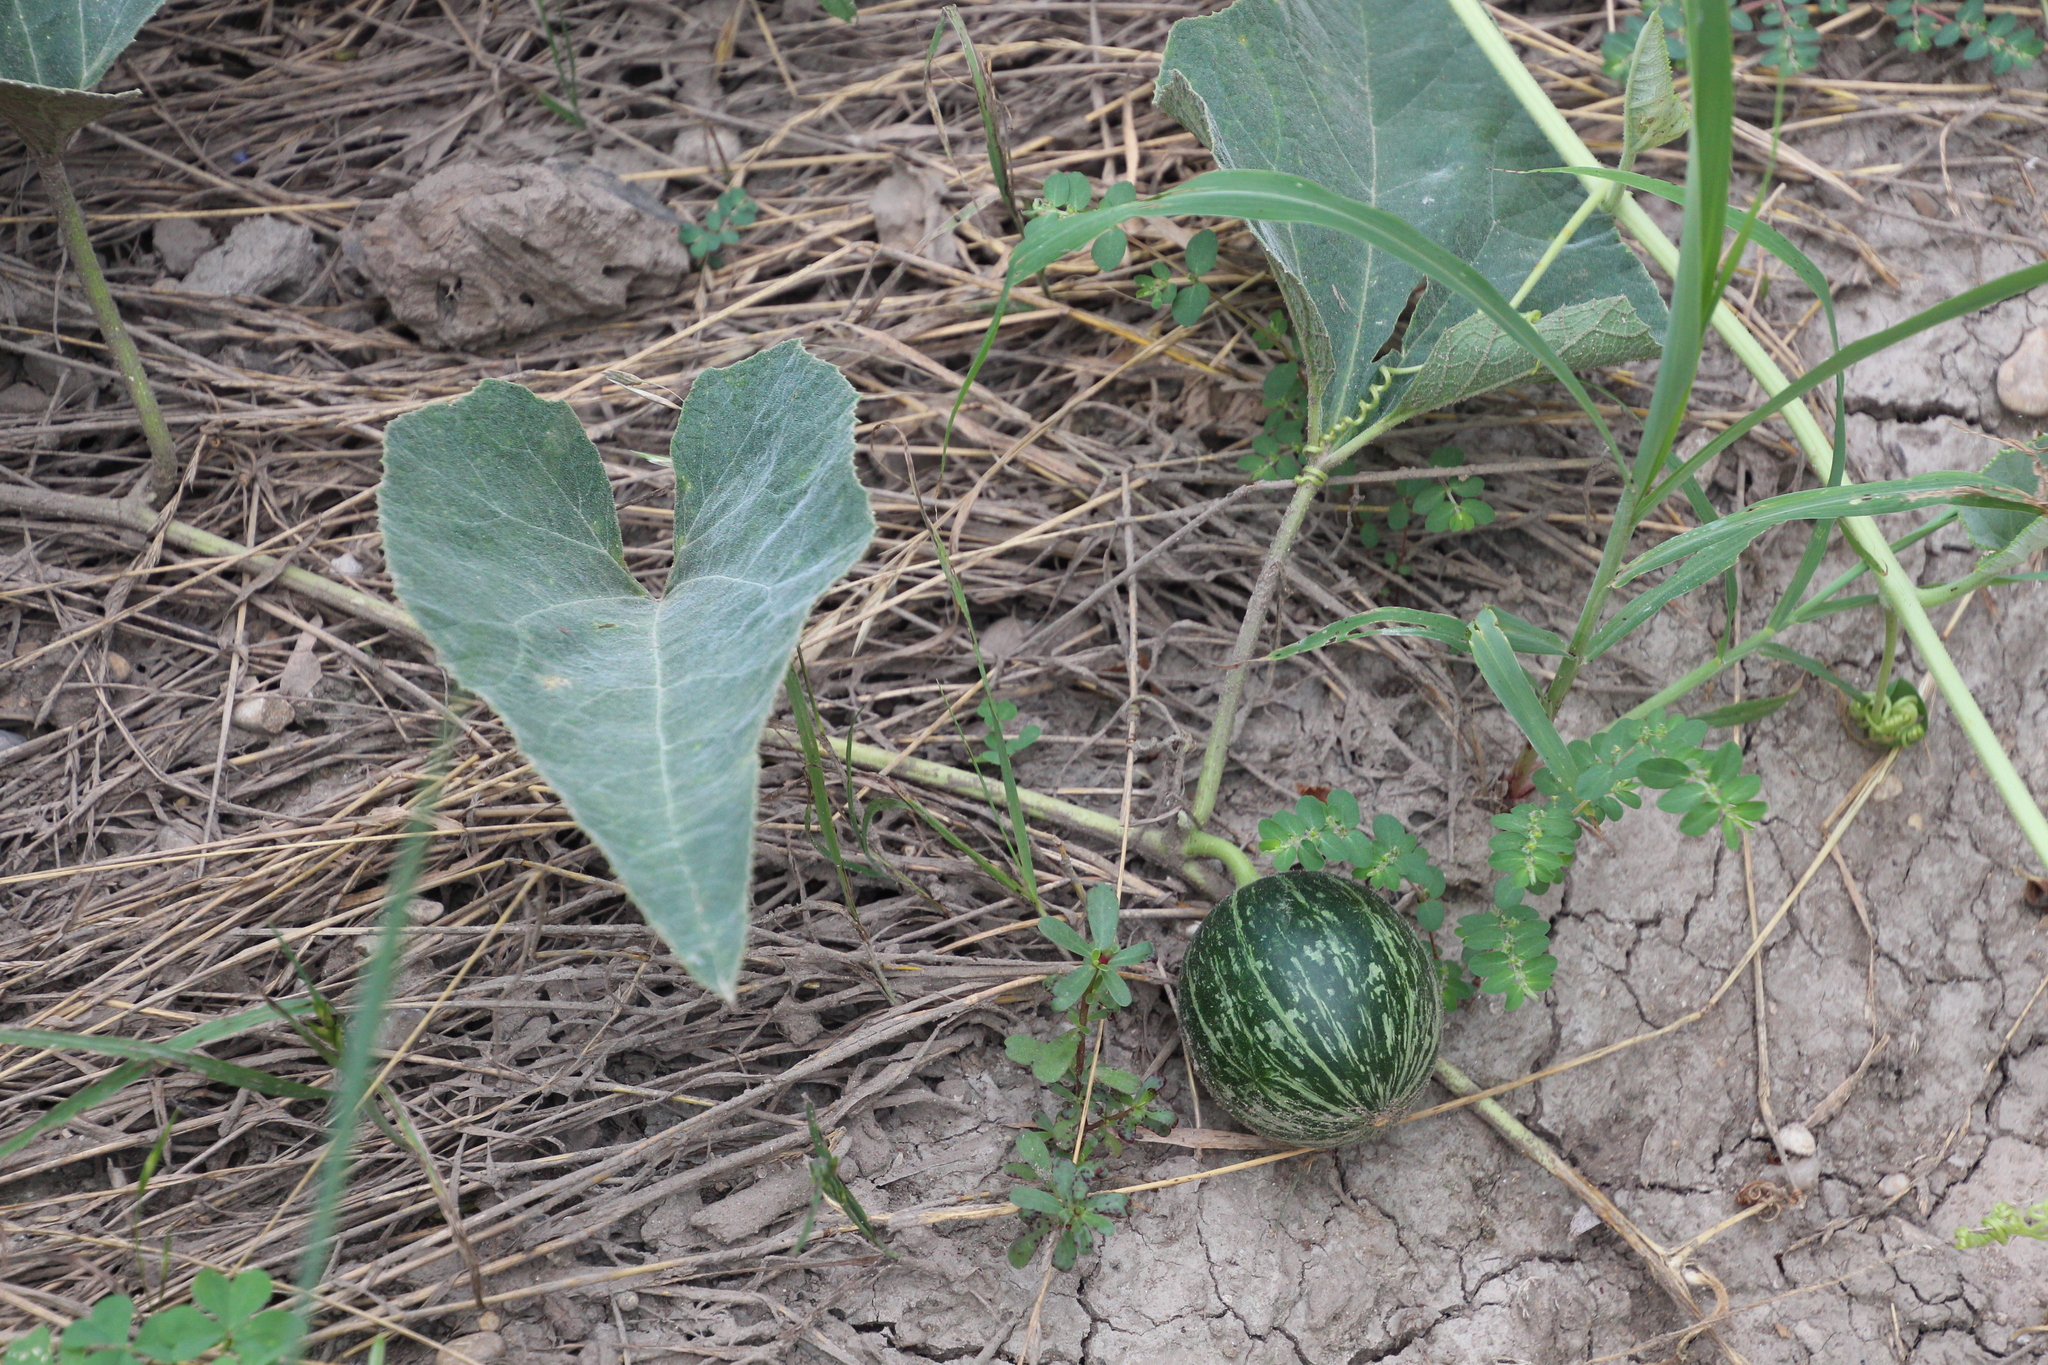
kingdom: Plantae
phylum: Tracheophyta
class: Magnoliopsida
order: Cucurbitales
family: Cucurbitaceae
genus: Cucurbita
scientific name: Cucurbita foetidissima
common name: Buffalo gourd
